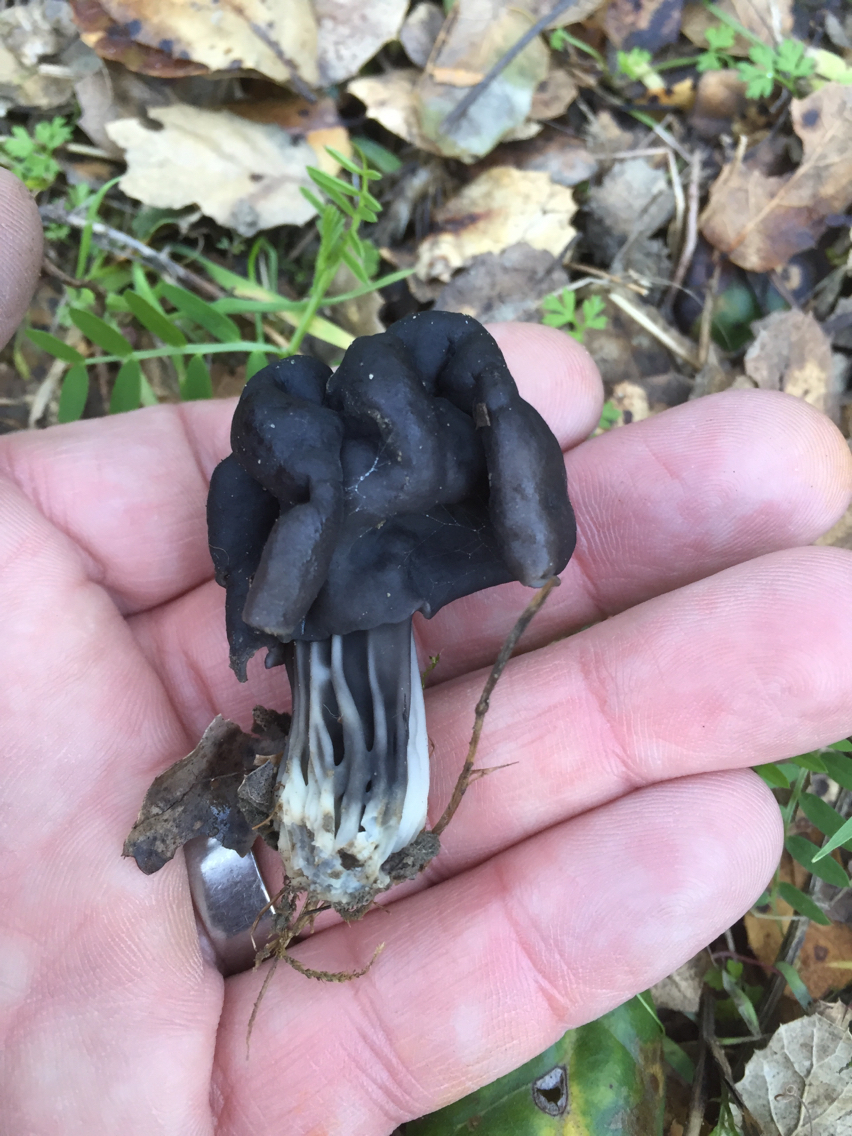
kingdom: Fungi
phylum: Ascomycota
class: Pezizomycetes
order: Pezizales
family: Helvellaceae
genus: Helvella
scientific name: Helvella dryophila
